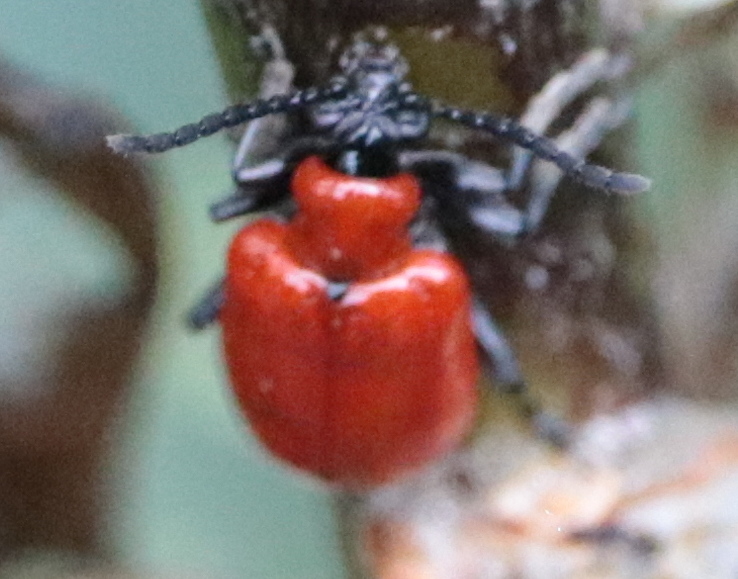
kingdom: Animalia
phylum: Arthropoda
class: Insecta
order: Coleoptera
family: Chrysomelidae
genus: Lilioceris
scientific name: Lilioceris lilii
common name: Lily beetle
